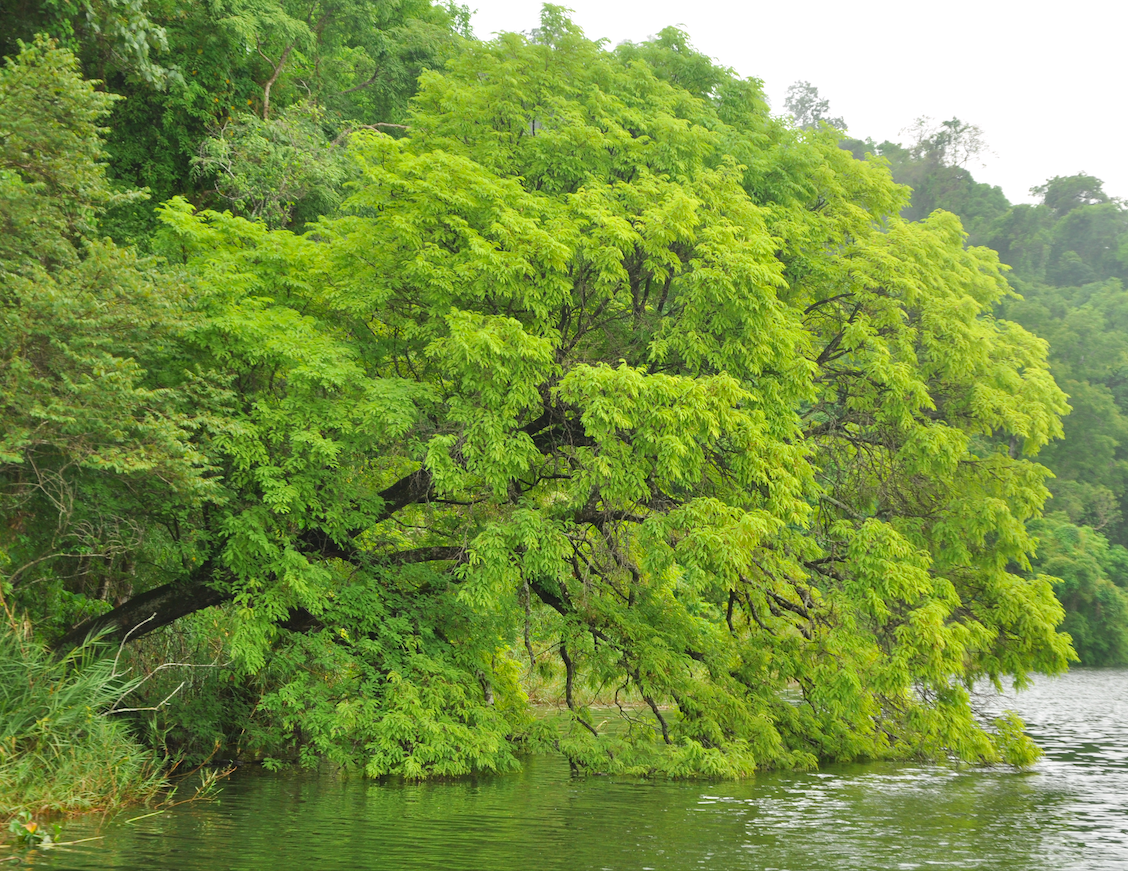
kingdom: Plantae
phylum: Tracheophyta
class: Magnoliopsida
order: Fabales
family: Fabaceae
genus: Tamarindus
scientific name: Tamarindus indica
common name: Tamarind
